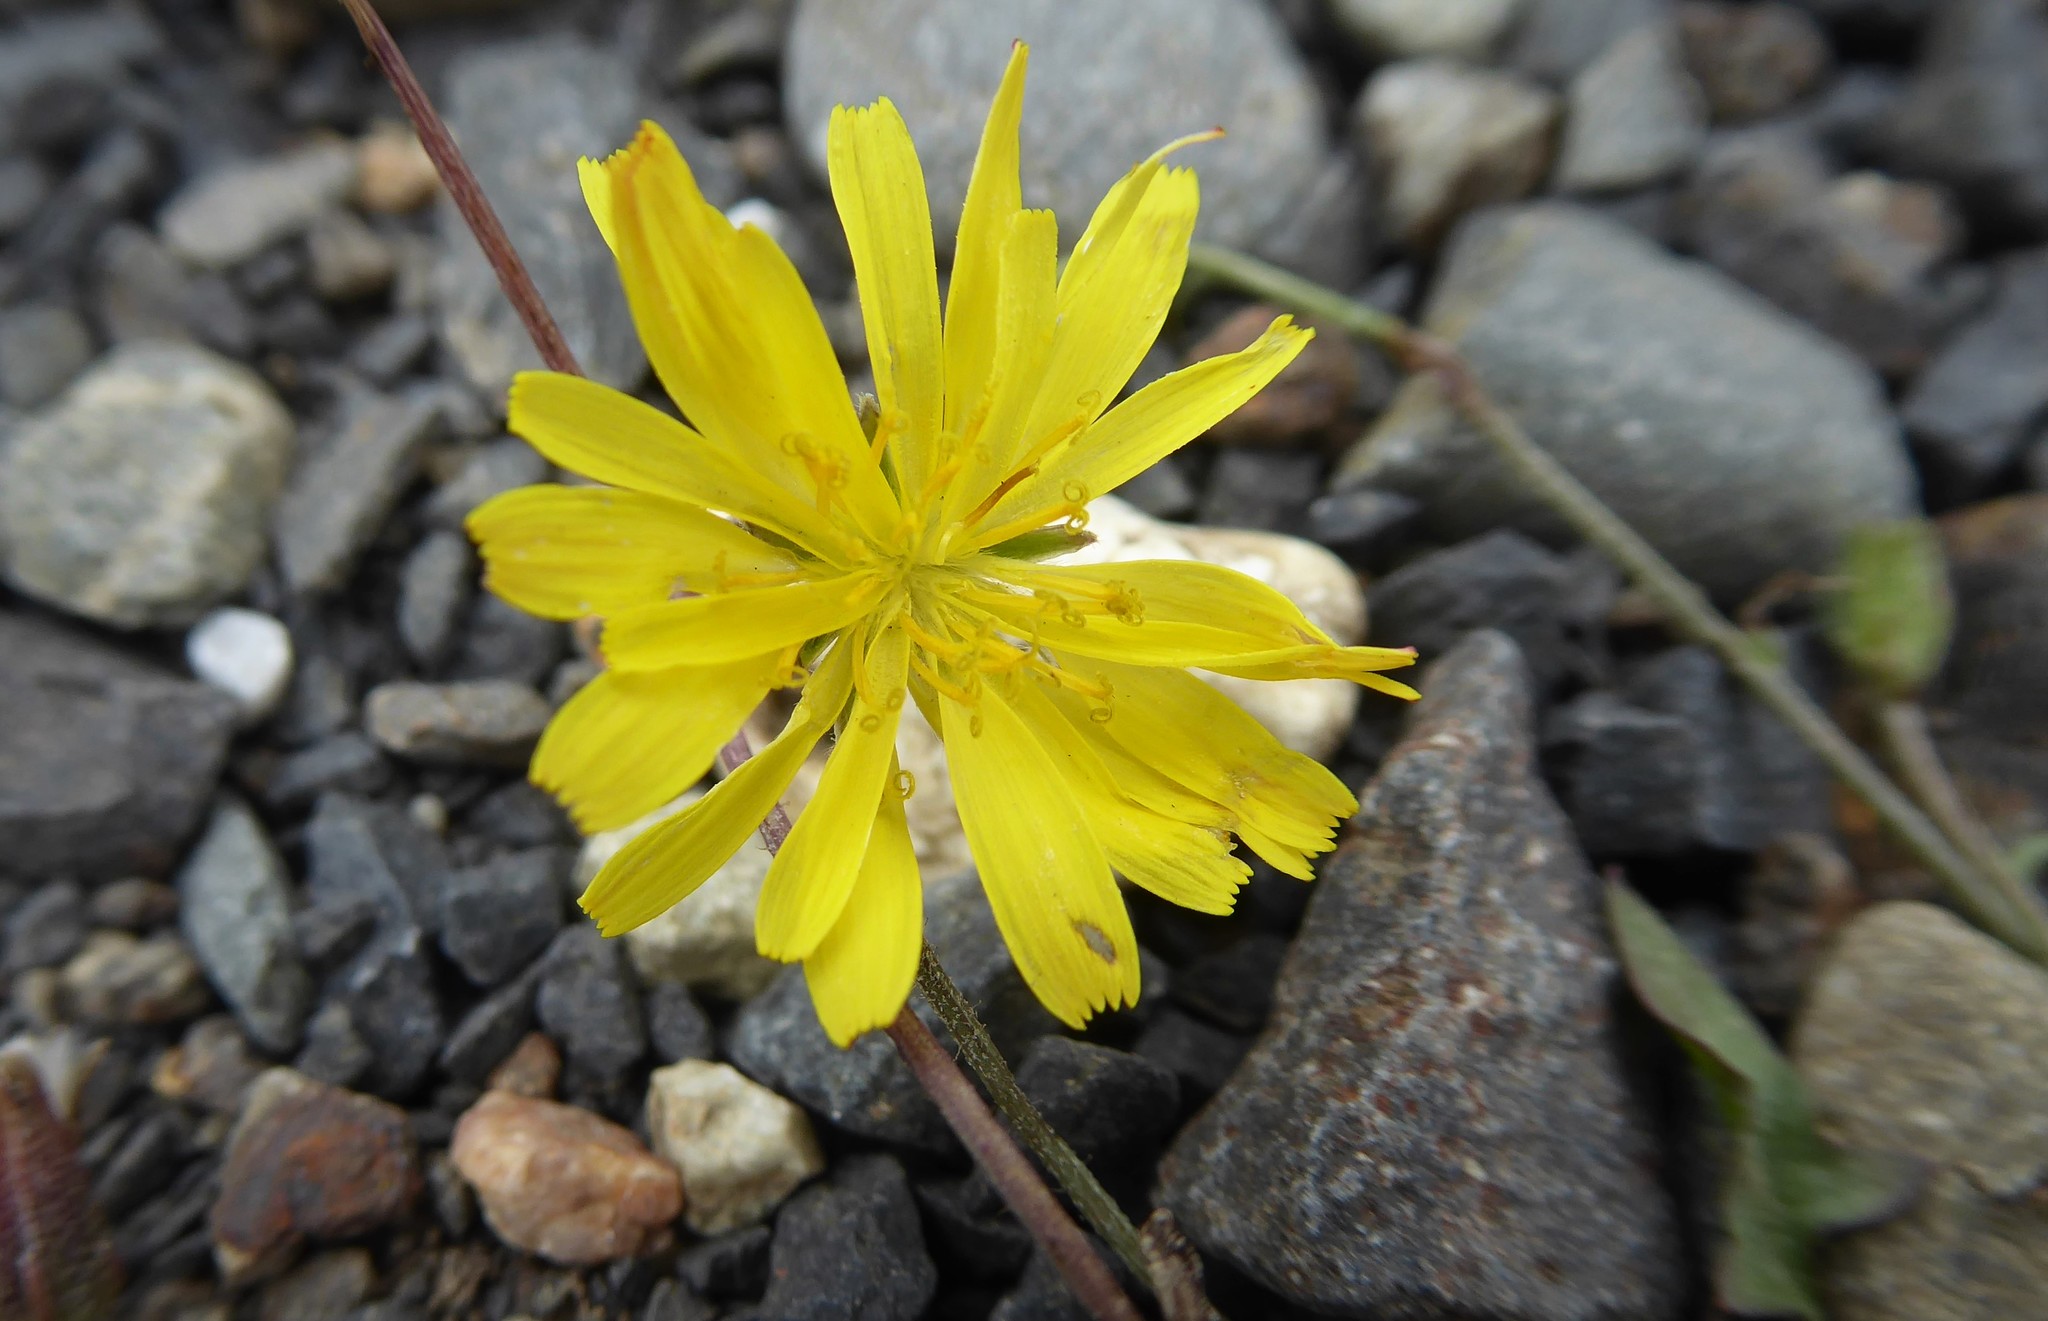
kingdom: Plantae
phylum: Tracheophyta
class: Magnoliopsida
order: Asterales
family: Asteraceae
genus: Scorzoneroides
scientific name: Scorzoneroides autumnalis
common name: Autumn hawkbit
